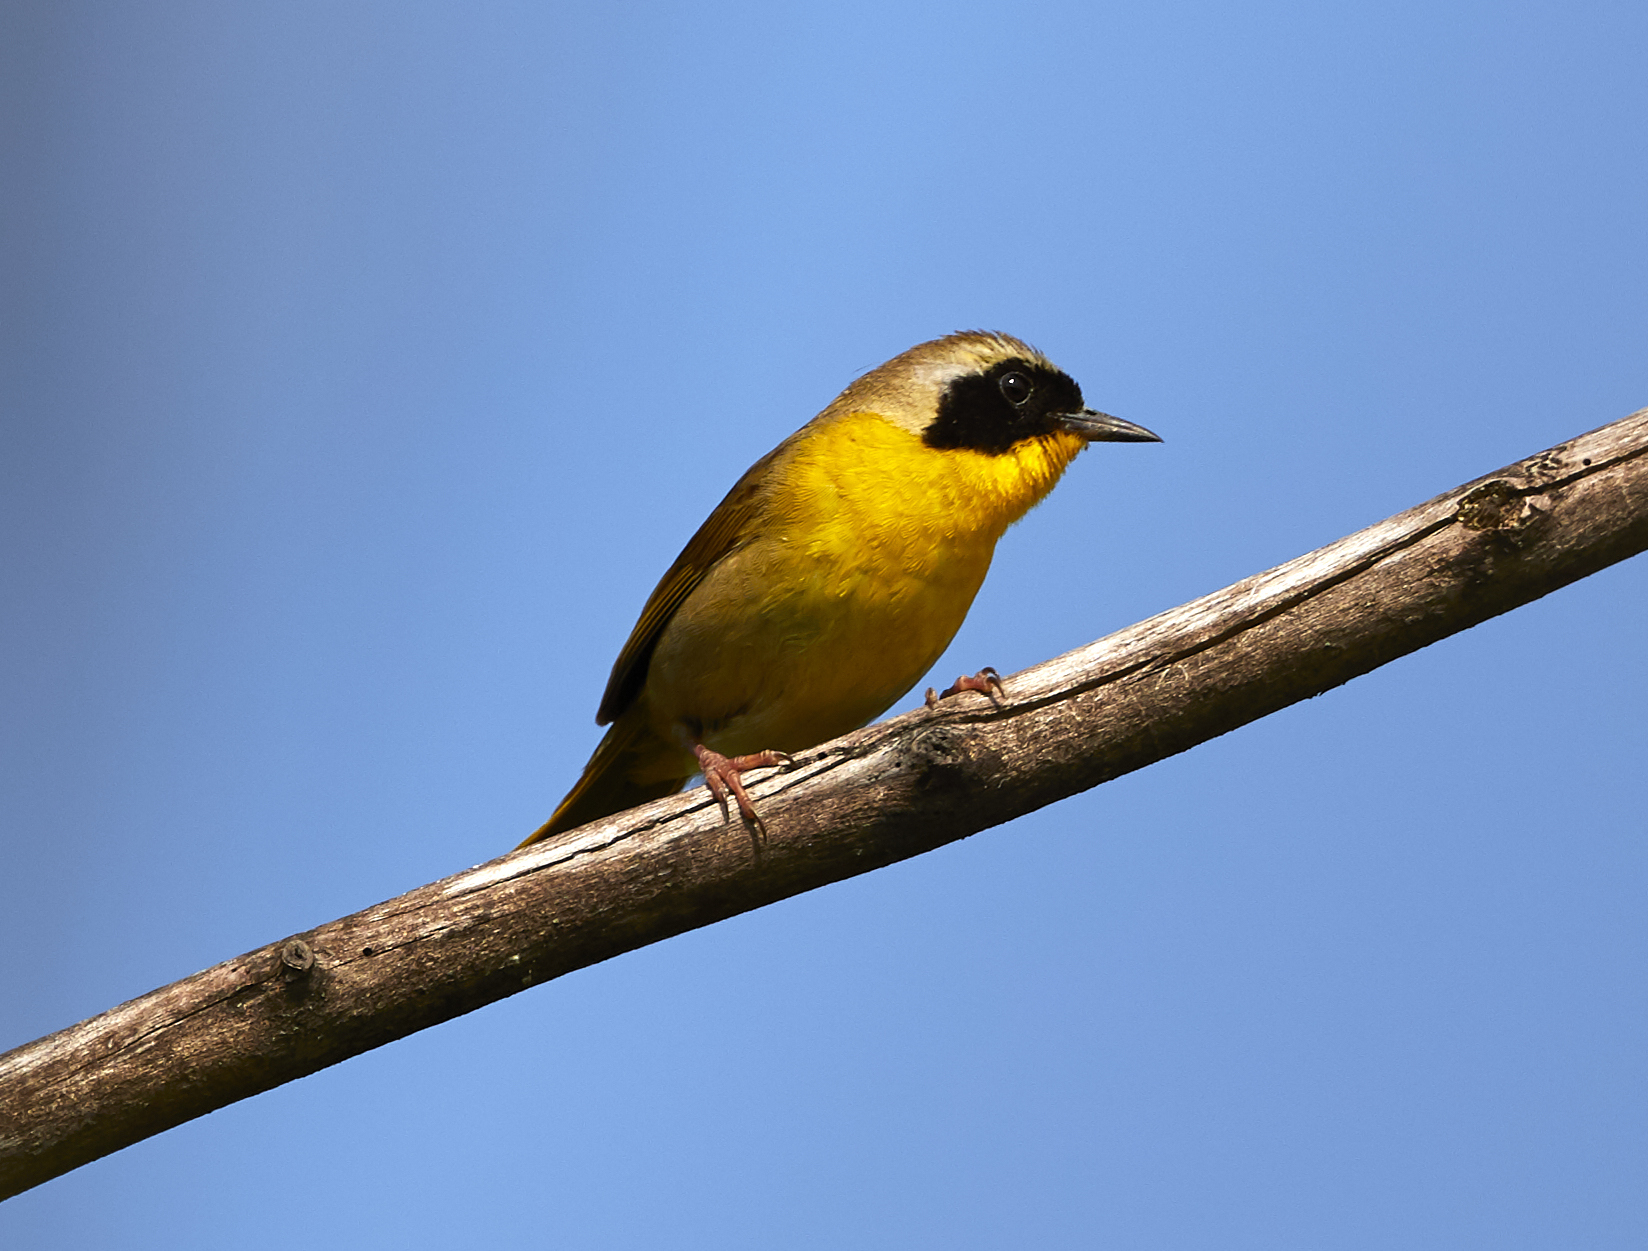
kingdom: Animalia
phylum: Chordata
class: Aves
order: Passeriformes
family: Parulidae
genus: Geothlypis
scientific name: Geothlypis trichas
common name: Common yellowthroat
